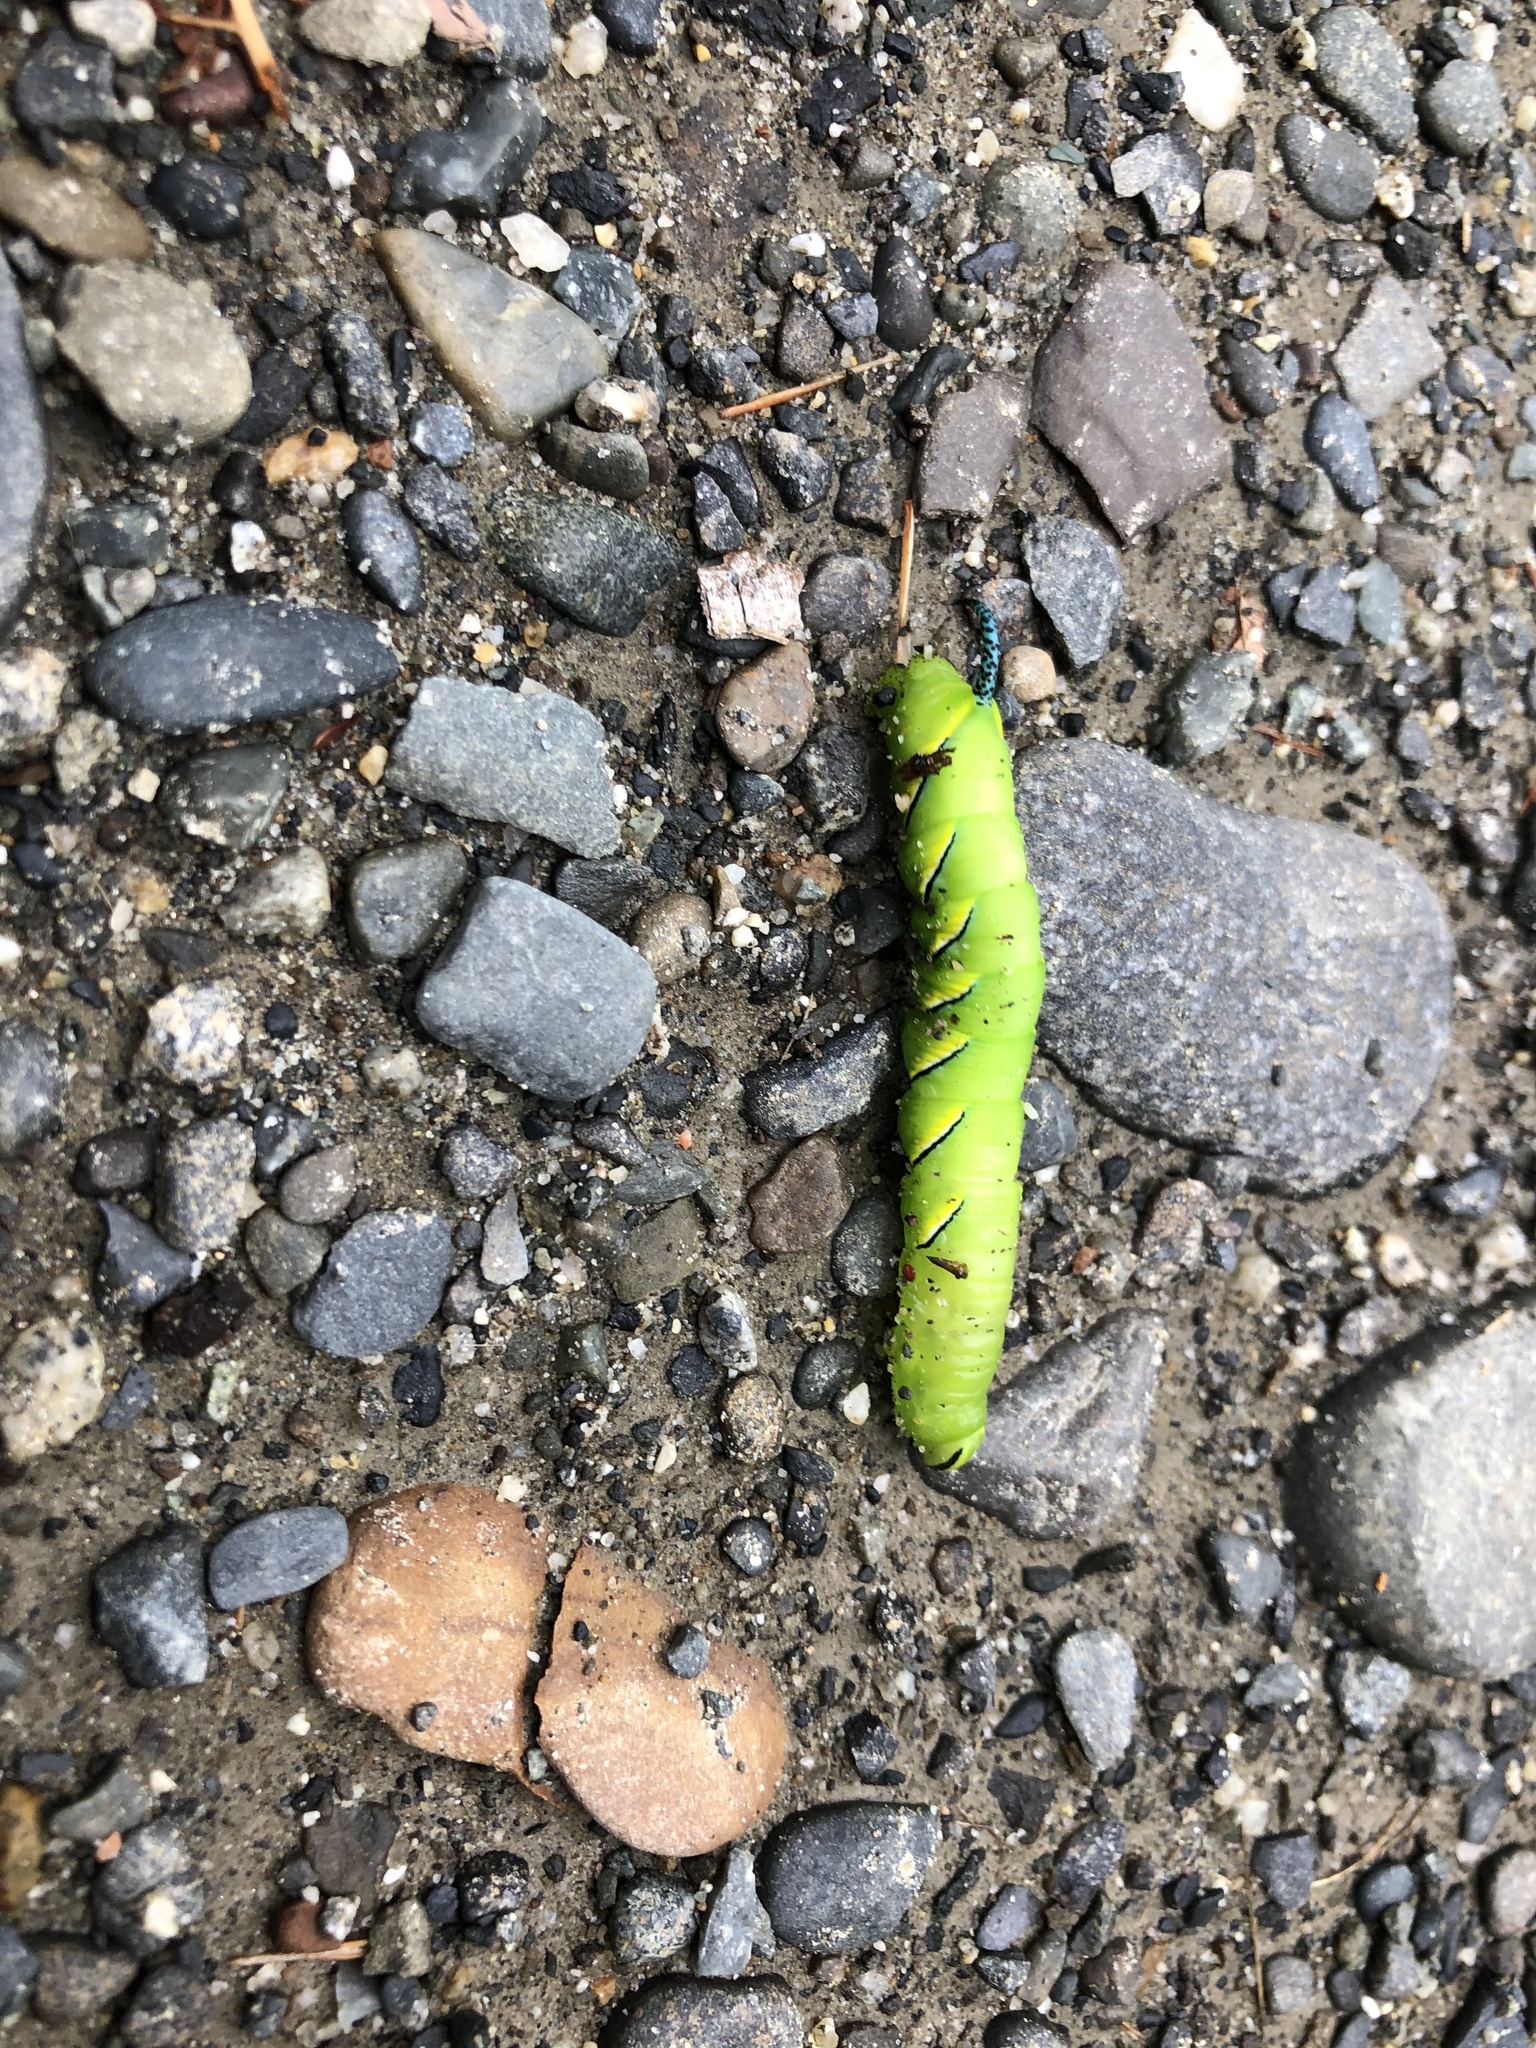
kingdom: Animalia
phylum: Arthropoda
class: Insecta
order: Lepidoptera
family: Sphingidae
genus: Sphinx
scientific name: Sphinx kalmiae
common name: Laurel sphinx
